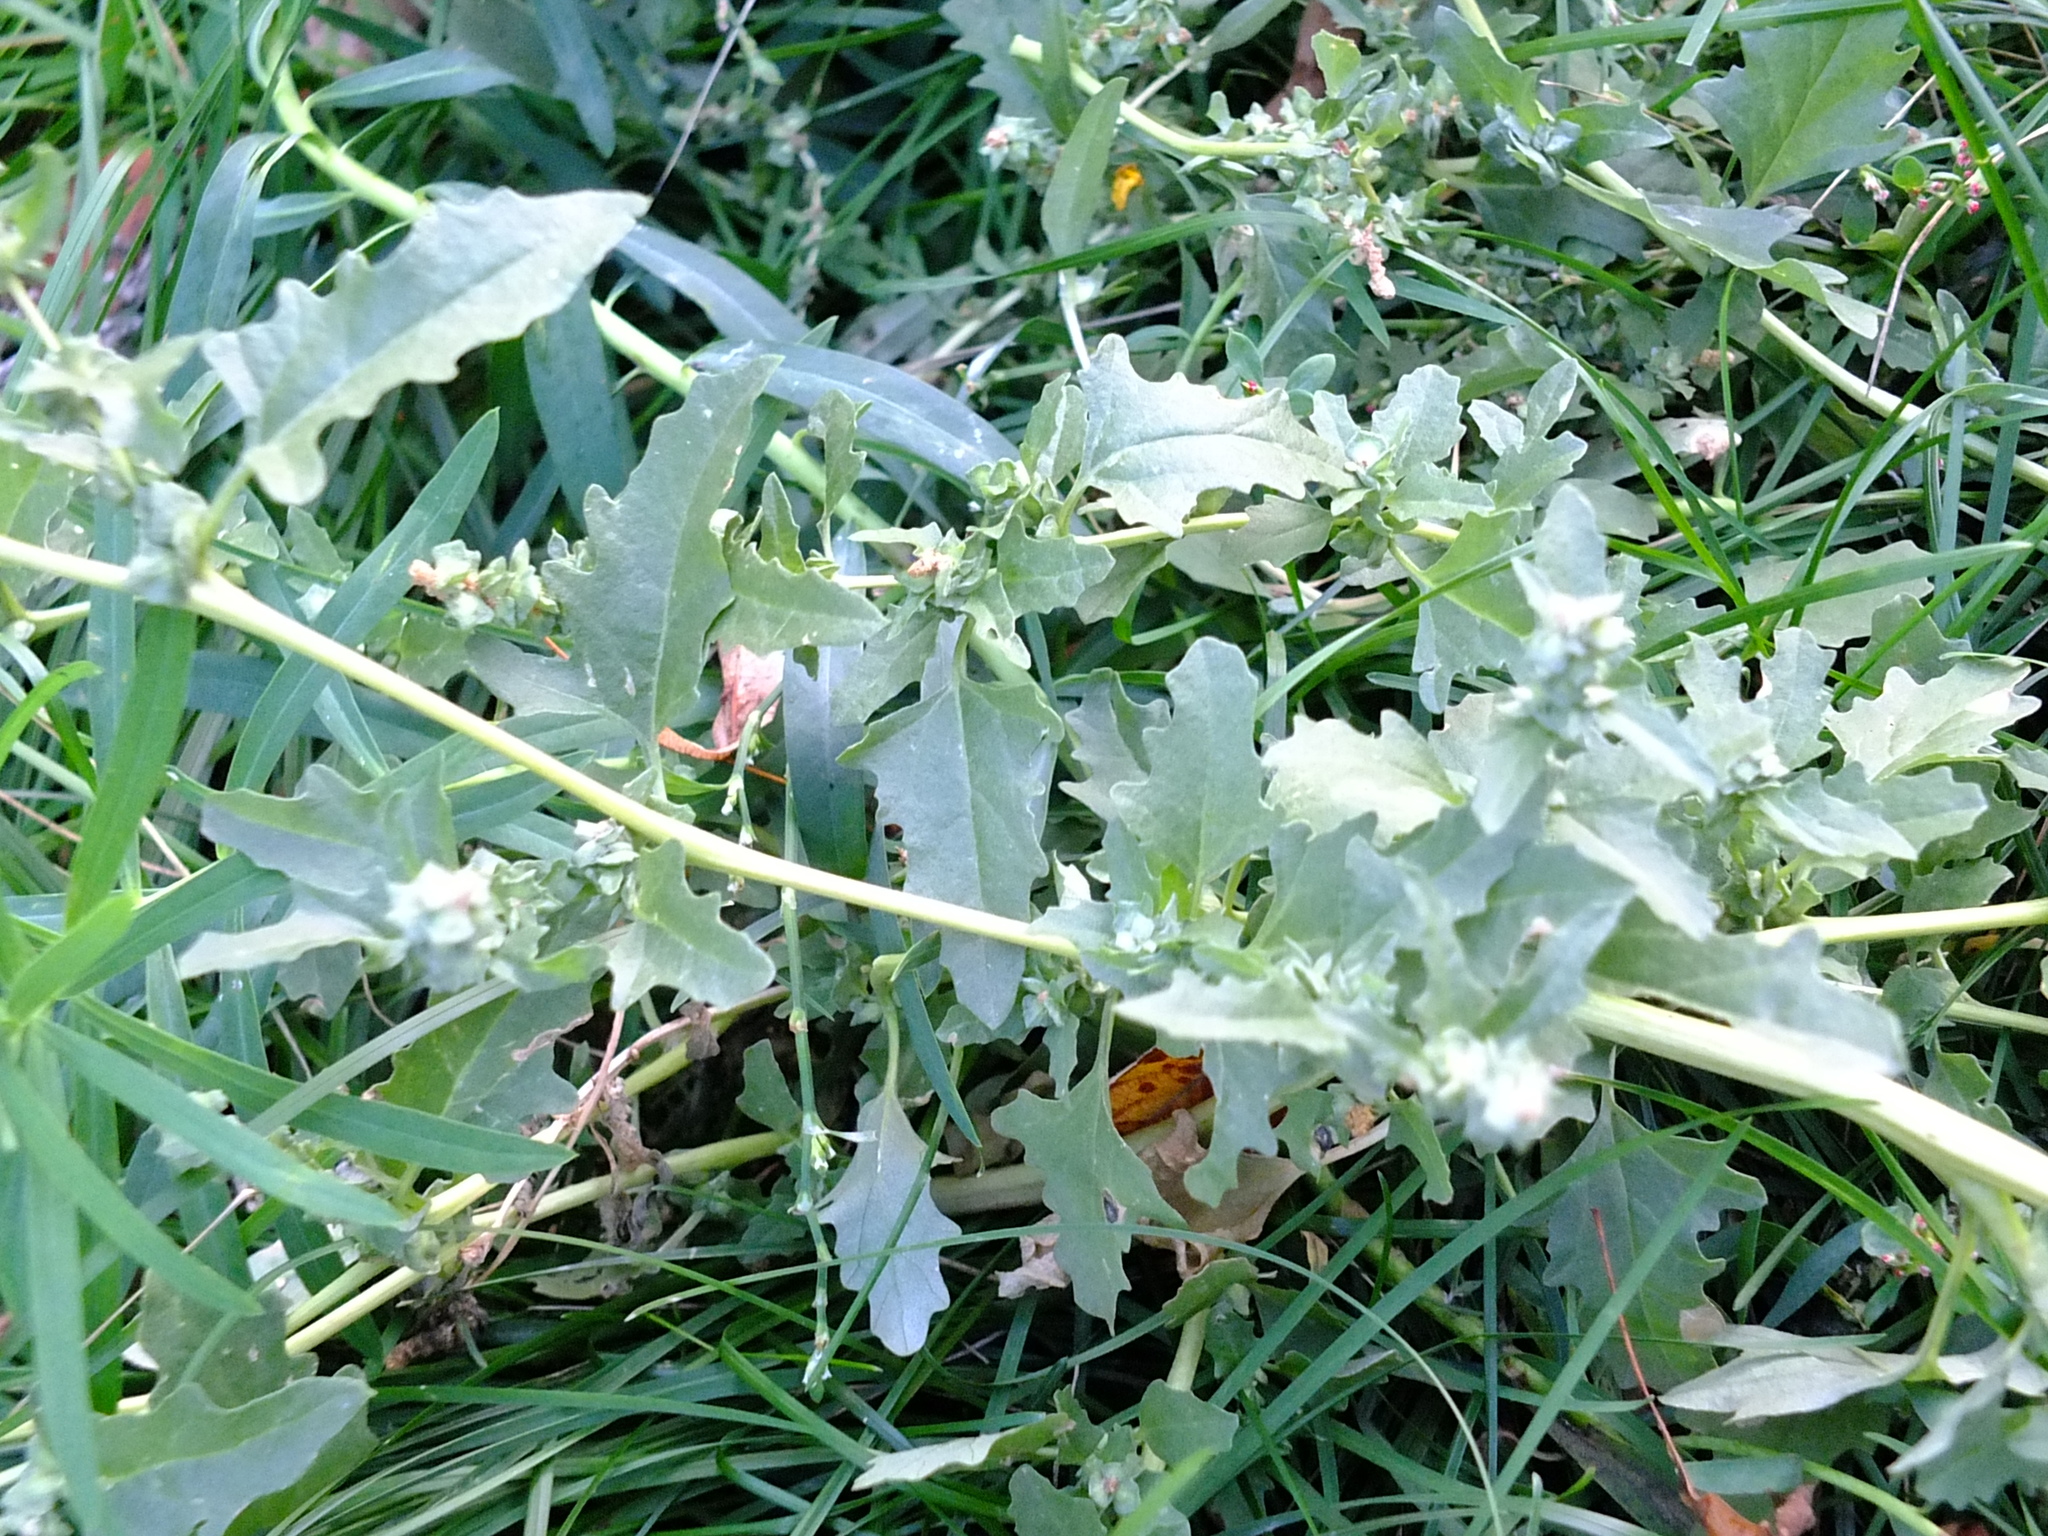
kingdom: Plantae
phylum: Tracheophyta
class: Magnoliopsida
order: Caryophyllales
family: Amaranthaceae
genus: Atriplex
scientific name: Atriplex tatarica
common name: Tatarian orache
